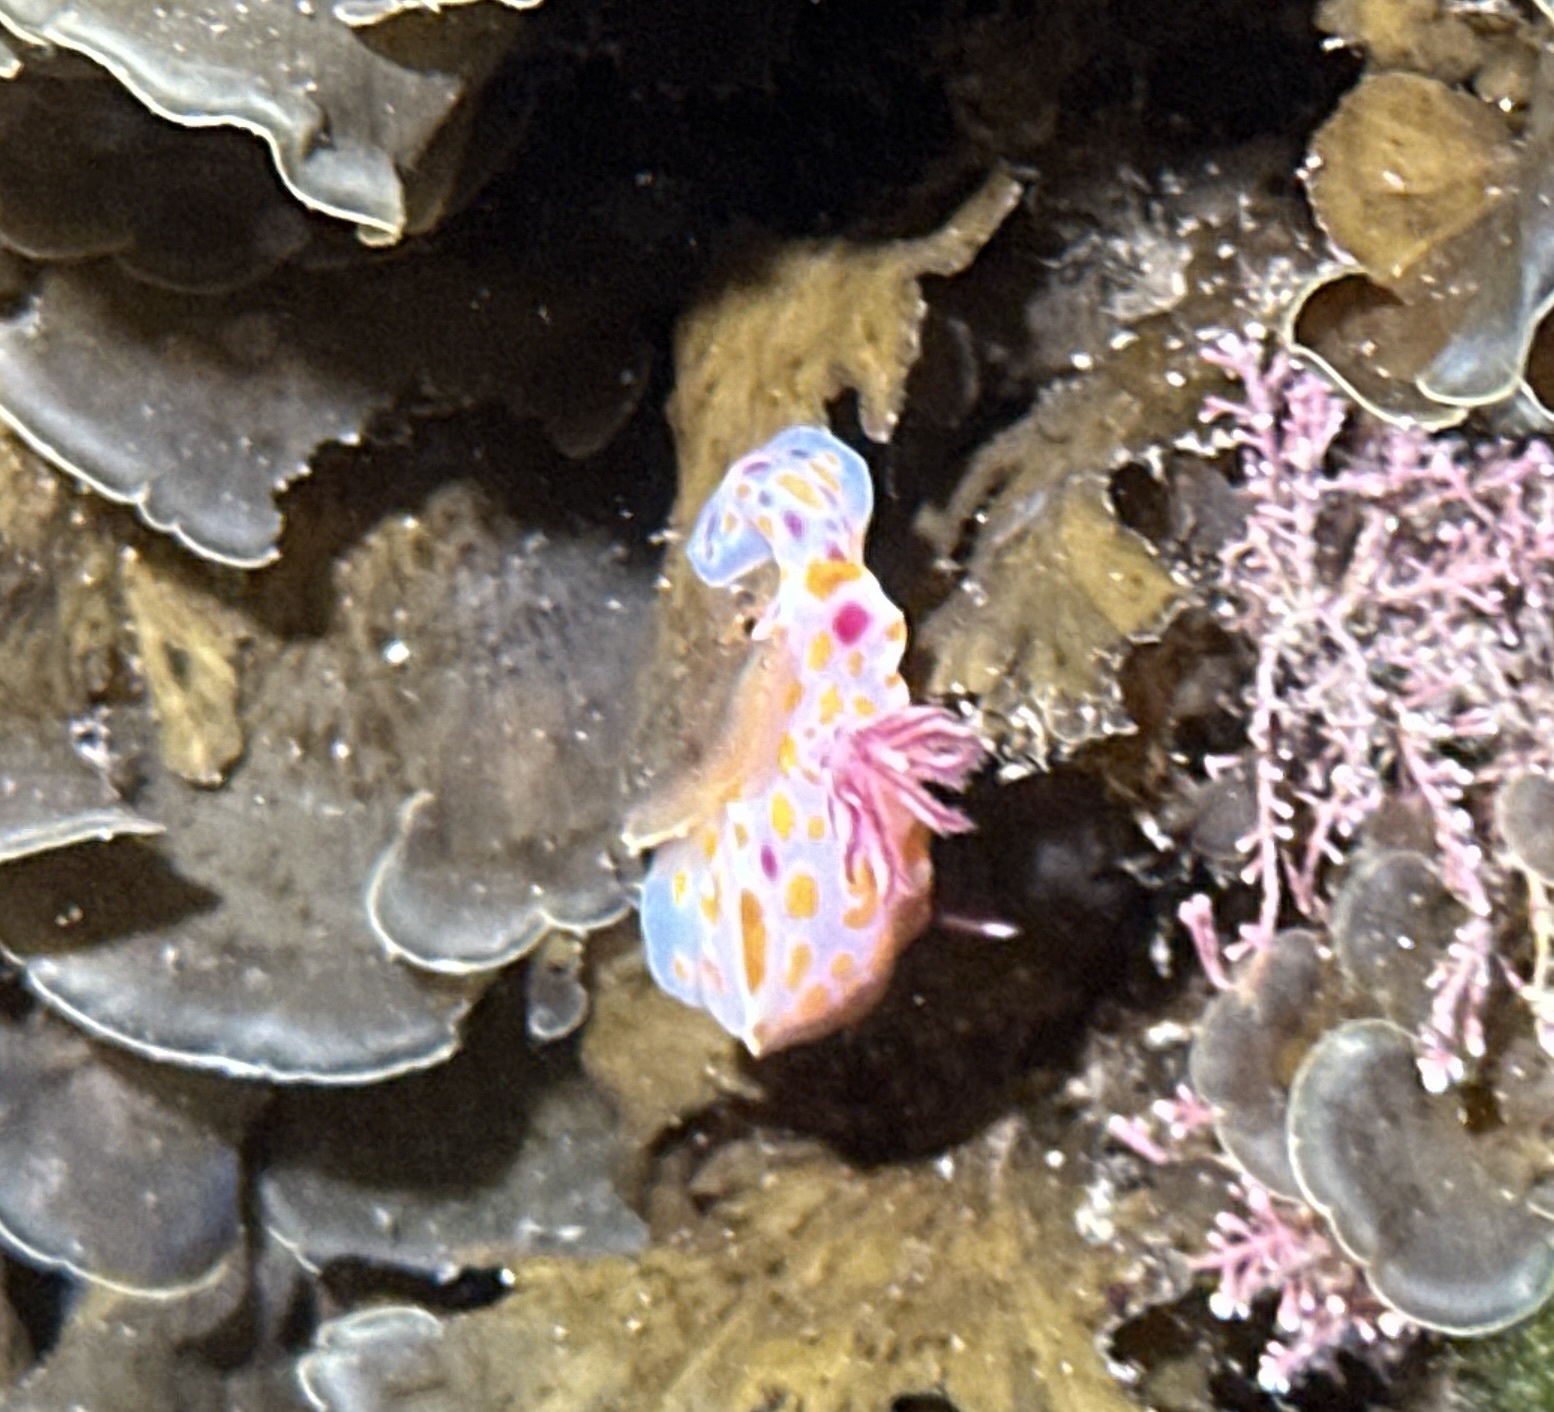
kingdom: Animalia
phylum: Mollusca
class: Gastropoda
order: Nudibranchia
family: Chromodorididae
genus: Ceratosoma
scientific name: Ceratosoma amoenum
